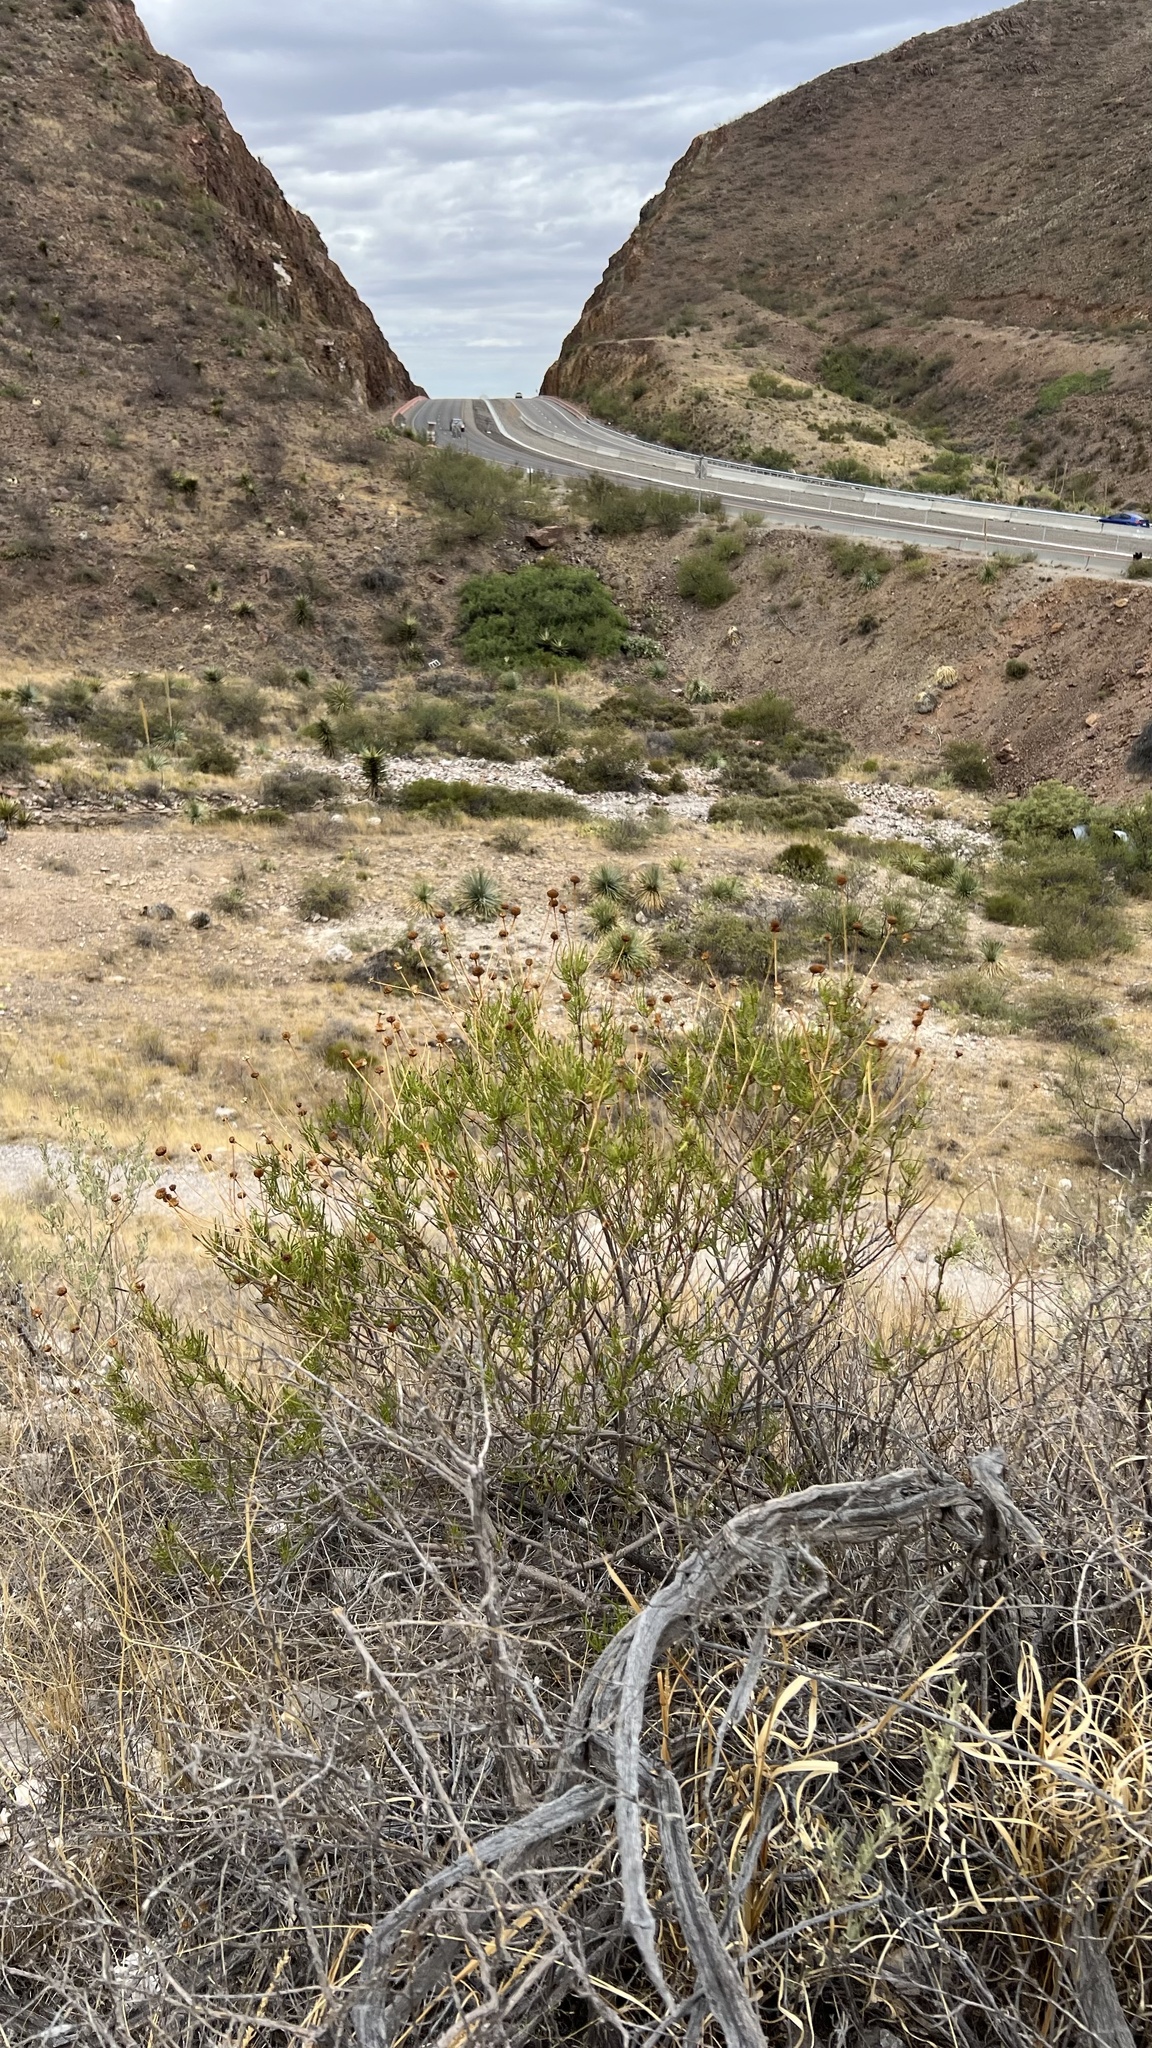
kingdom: Plantae
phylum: Tracheophyta
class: Magnoliopsida
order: Asterales
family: Asteraceae
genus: Sidneya
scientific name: Sidneya tenuifolia
